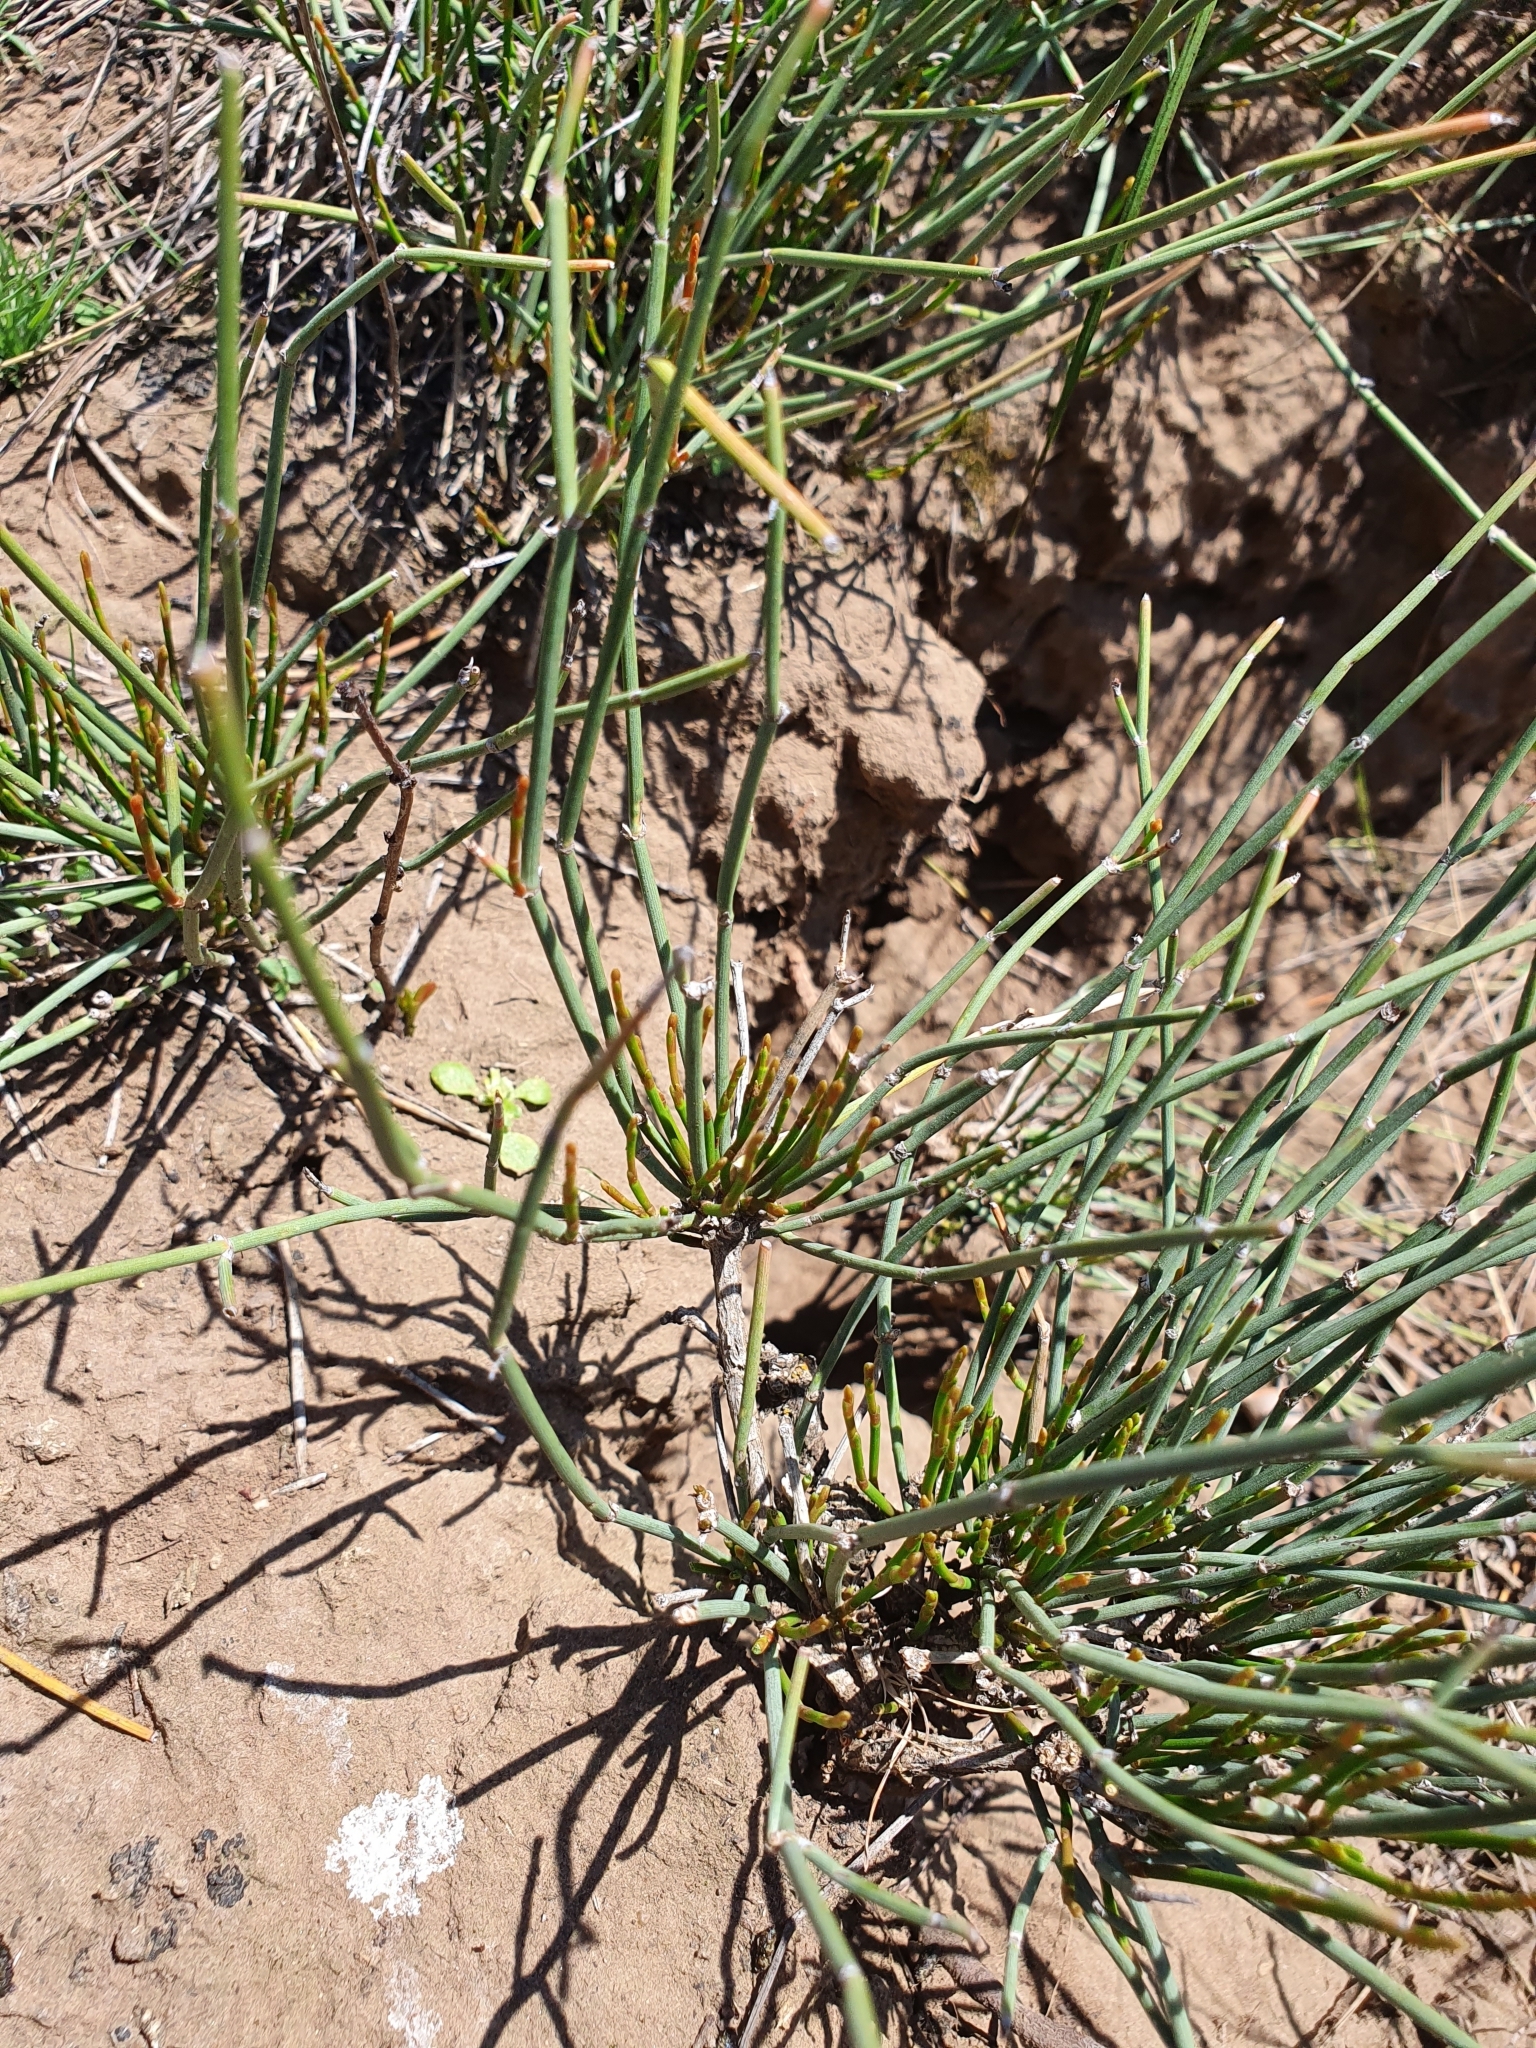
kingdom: Plantae
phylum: Tracheophyta
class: Gnetopsida
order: Ephedrales
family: Ephedraceae
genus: Ephedra
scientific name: Ephedra distachya
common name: Sea grape
